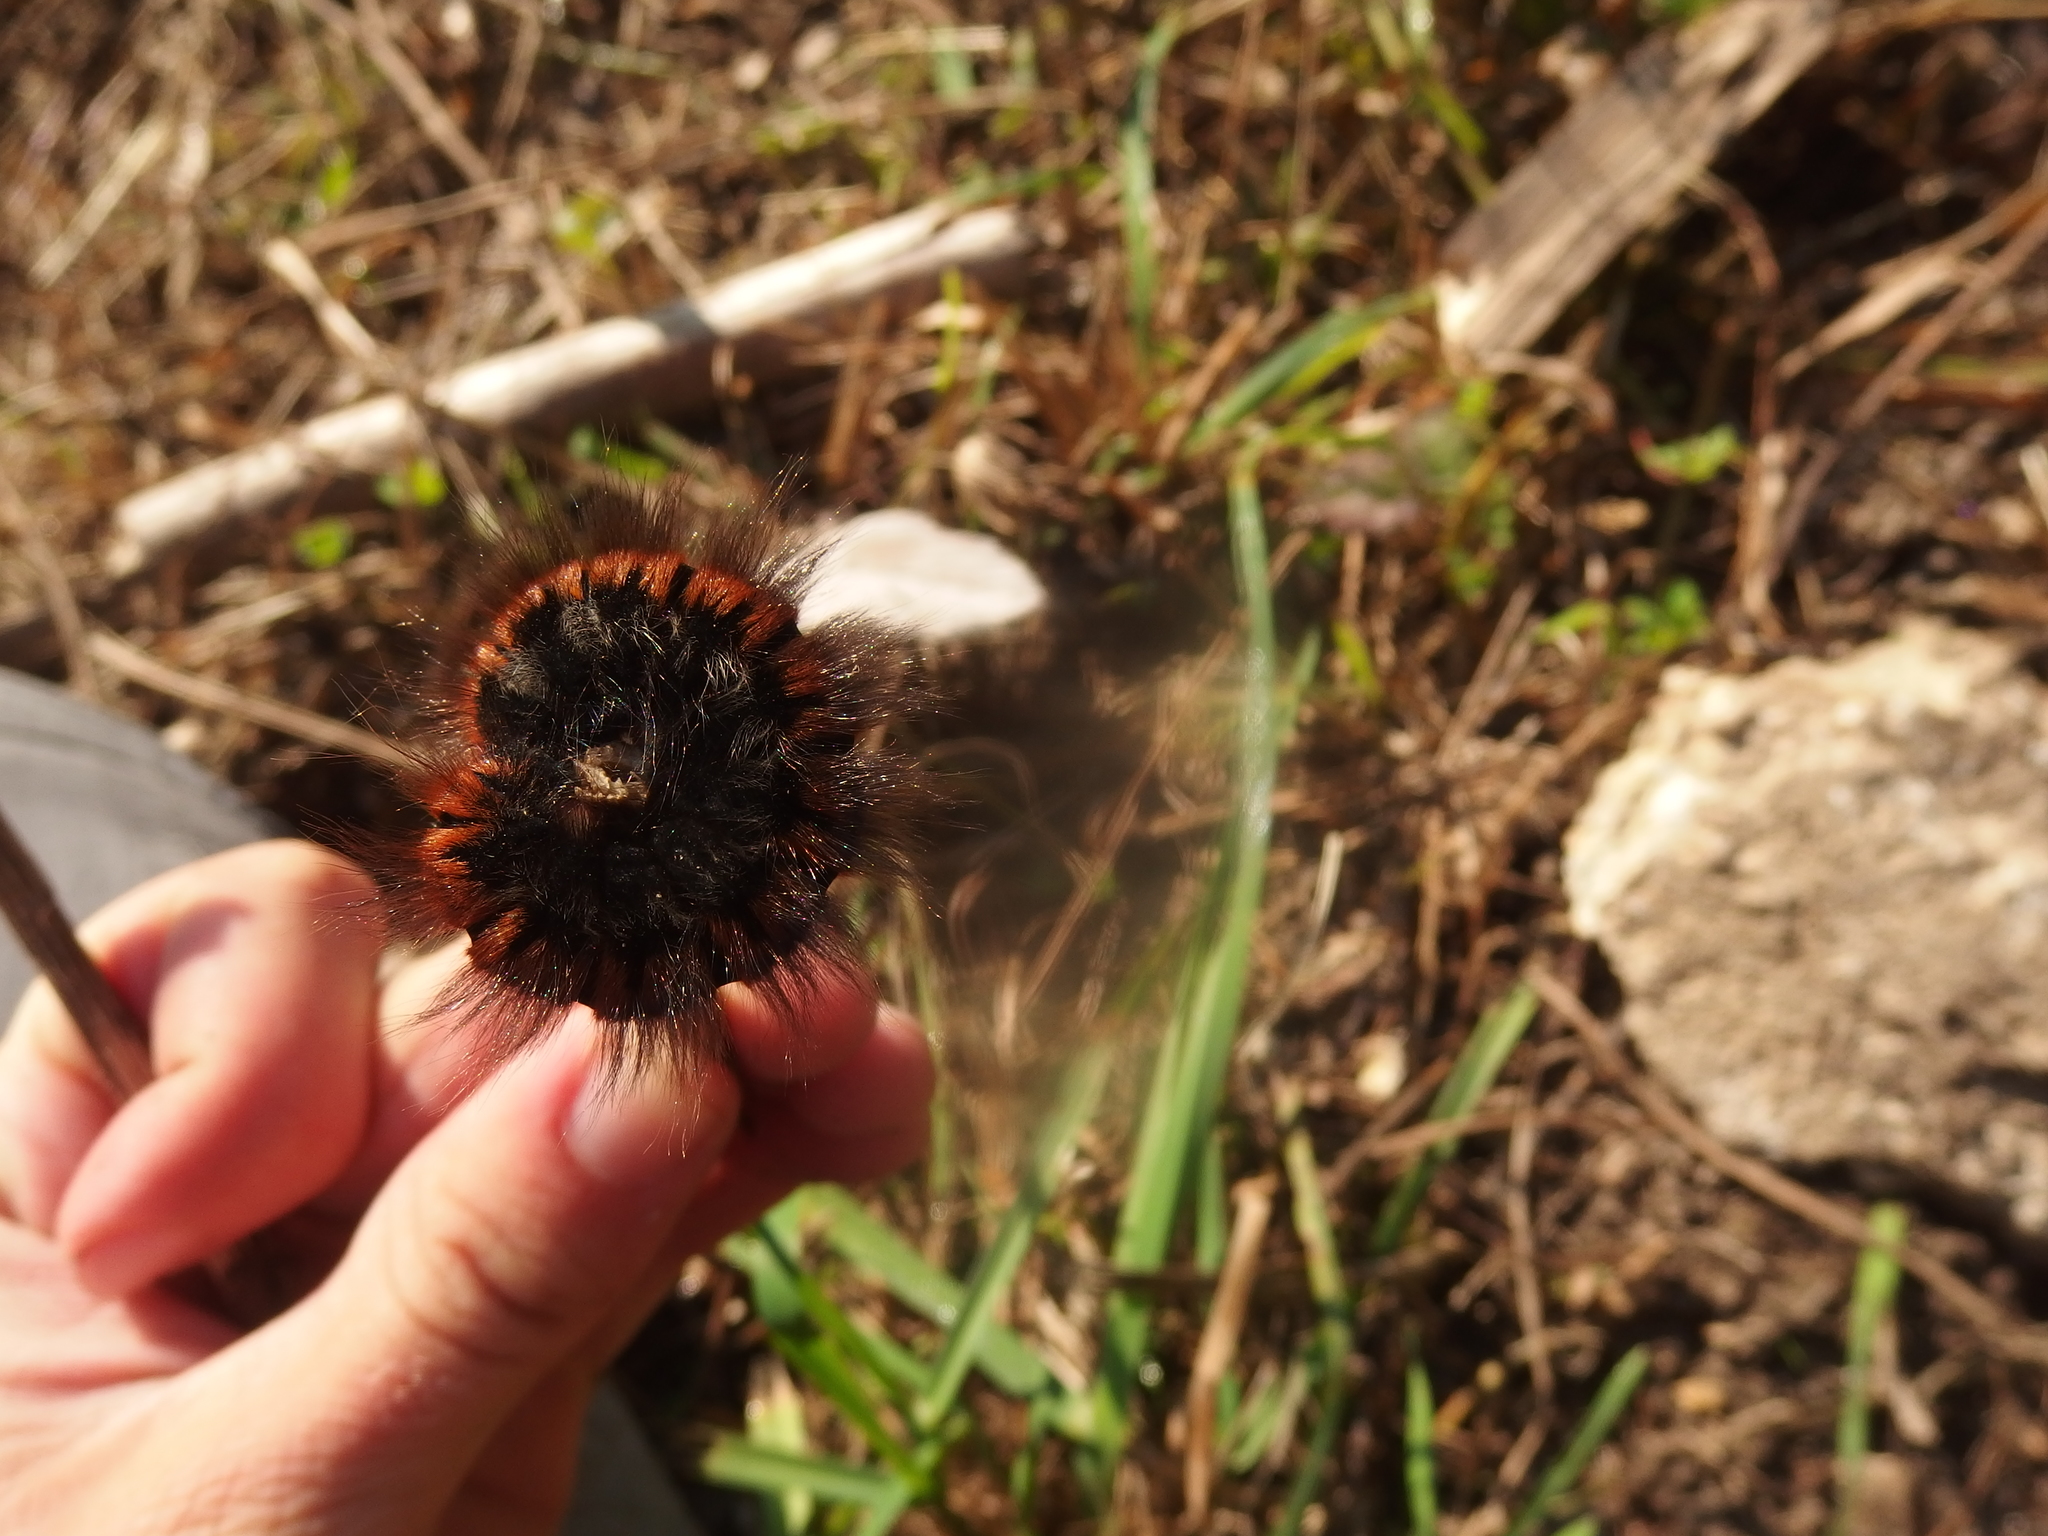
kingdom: Animalia
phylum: Arthropoda
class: Insecta
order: Lepidoptera
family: Lasiocampidae
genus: Macrothylacia
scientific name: Macrothylacia rubi
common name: Fox moth
